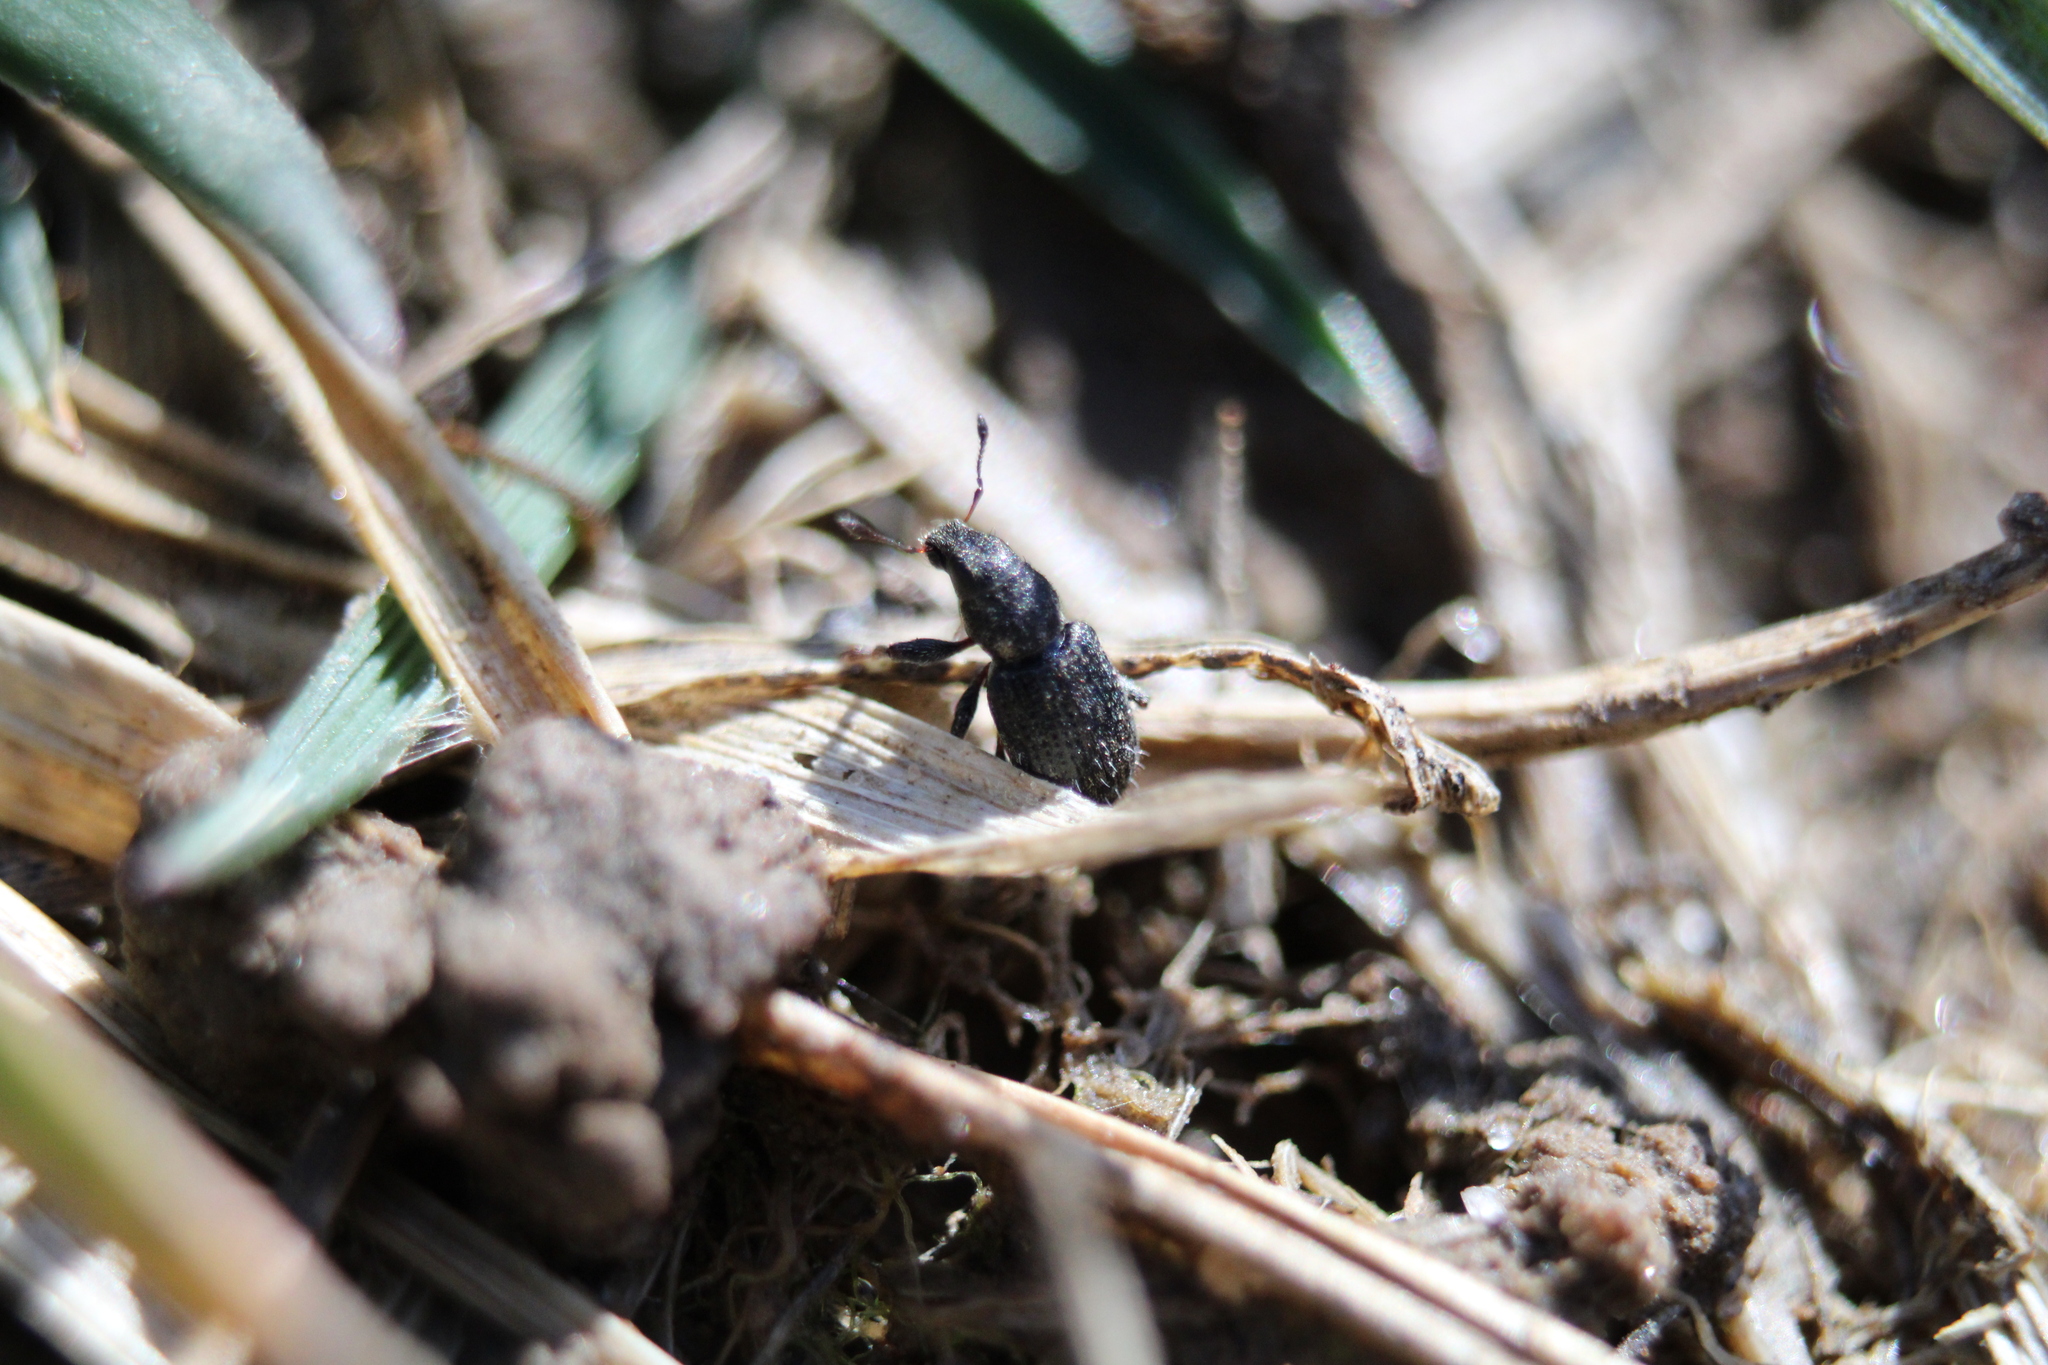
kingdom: Animalia
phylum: Arthropoda
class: Insecta
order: Coleoptera
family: Curculionidae
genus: Sitona
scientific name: Sitona hispidulus
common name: Clover weevil
